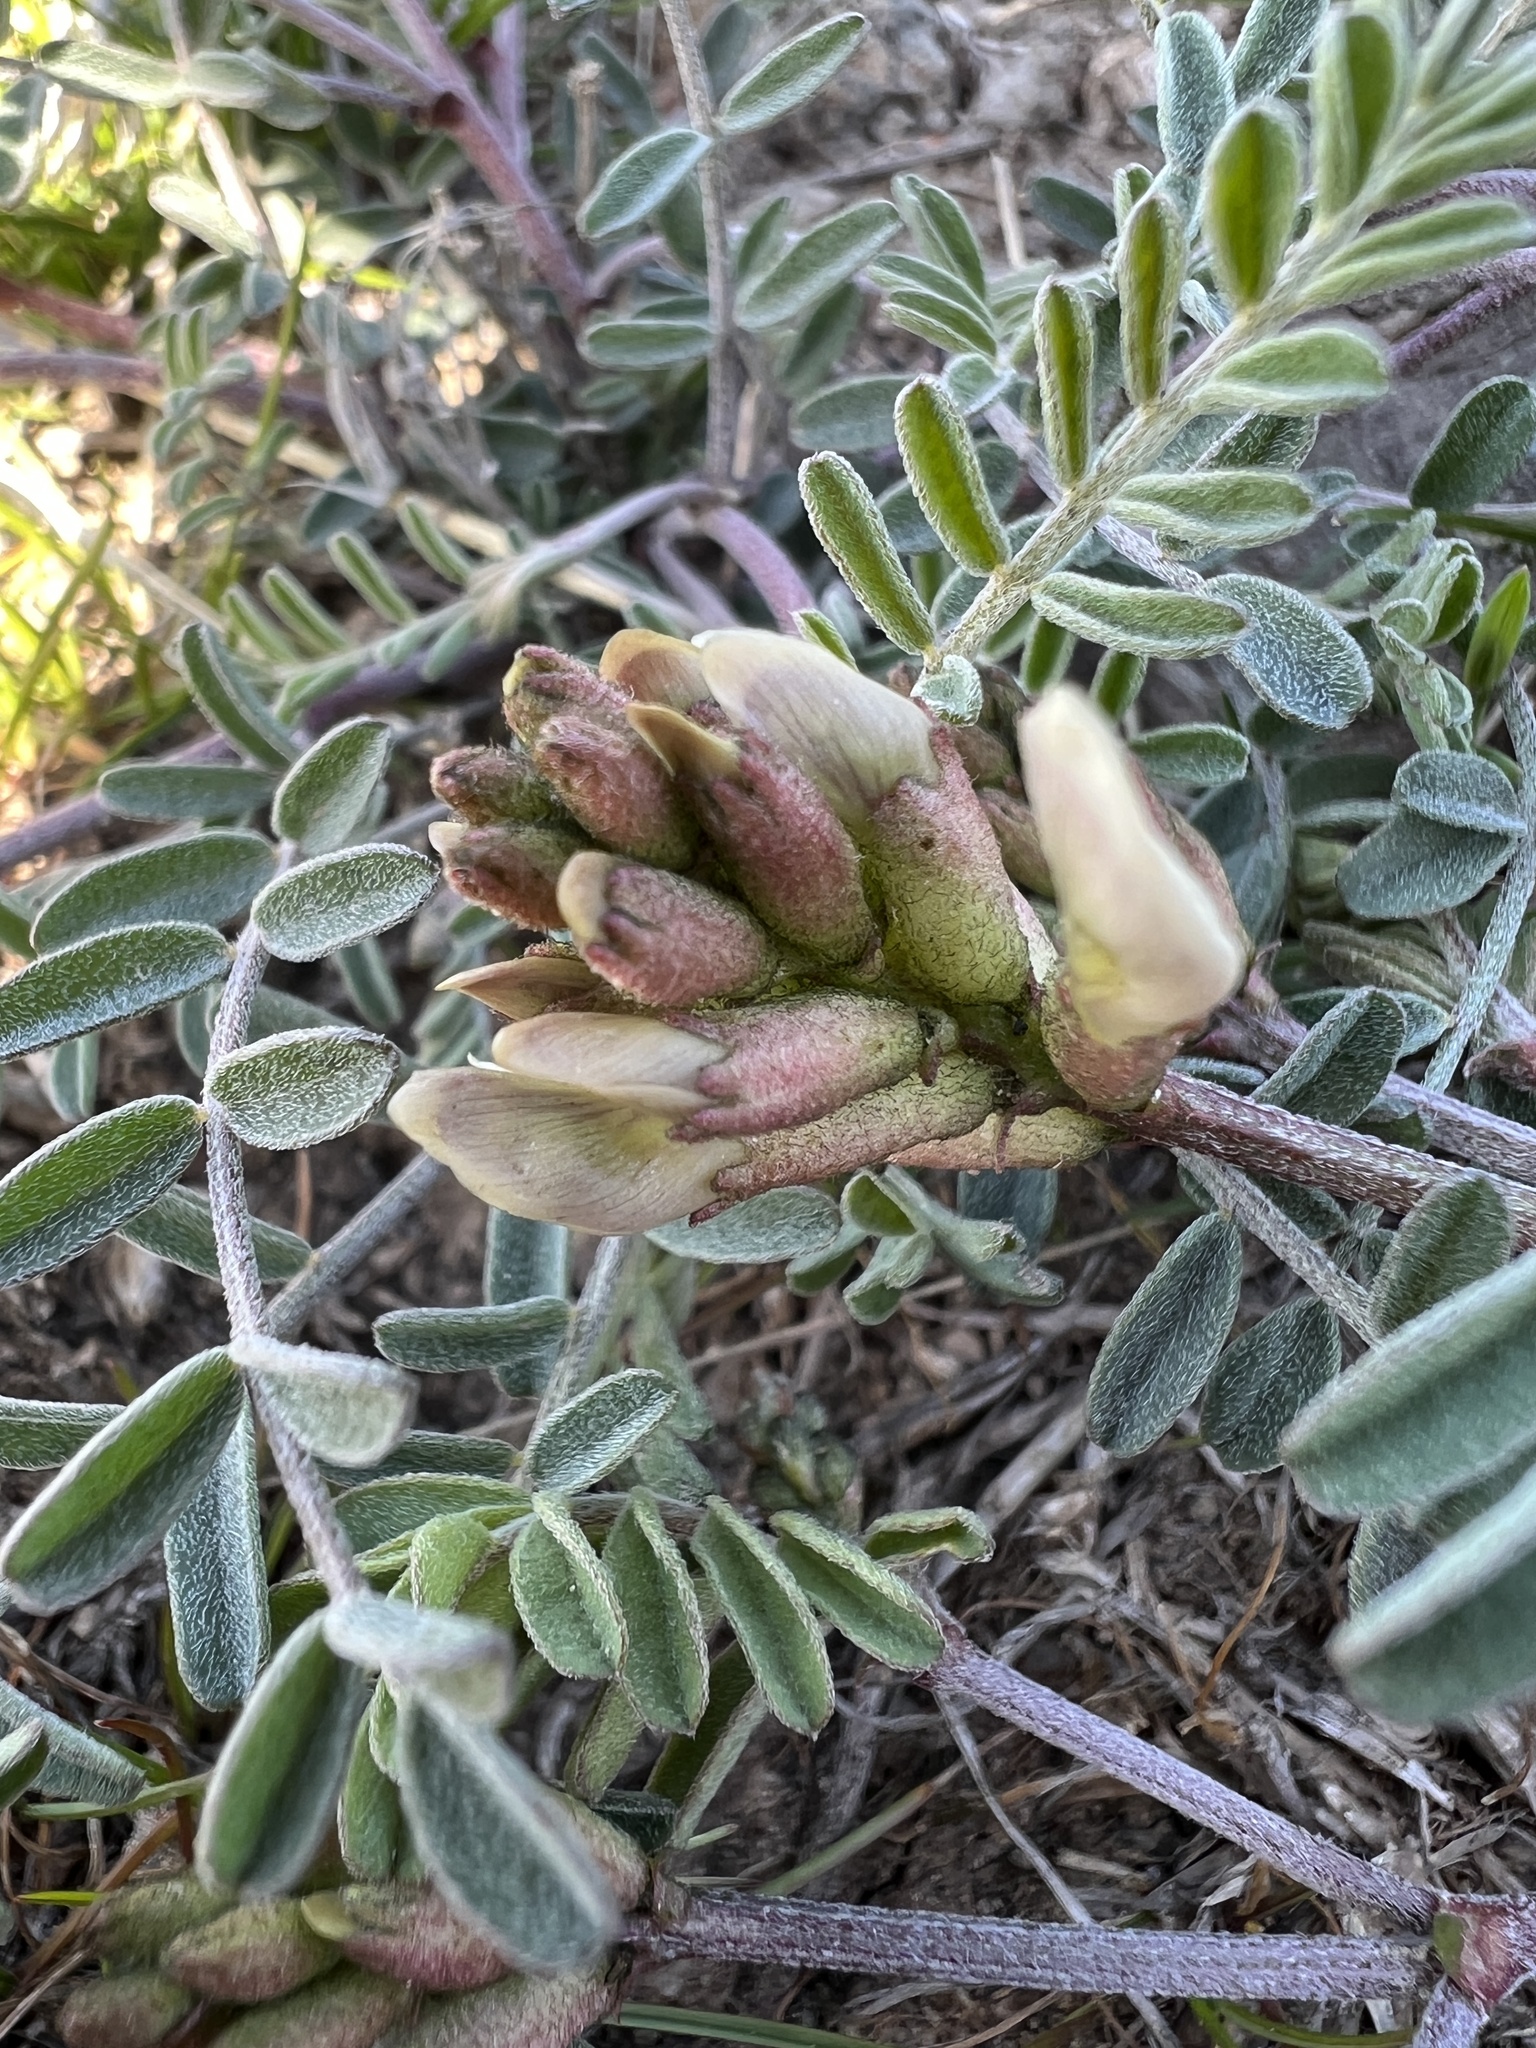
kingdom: Plantae
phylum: Tracheophyta
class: Magnoliopsida
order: Fabales
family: Fabaceae
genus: Astragalus
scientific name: Astragalus whitneyi
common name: Balloonpod milkvetch
